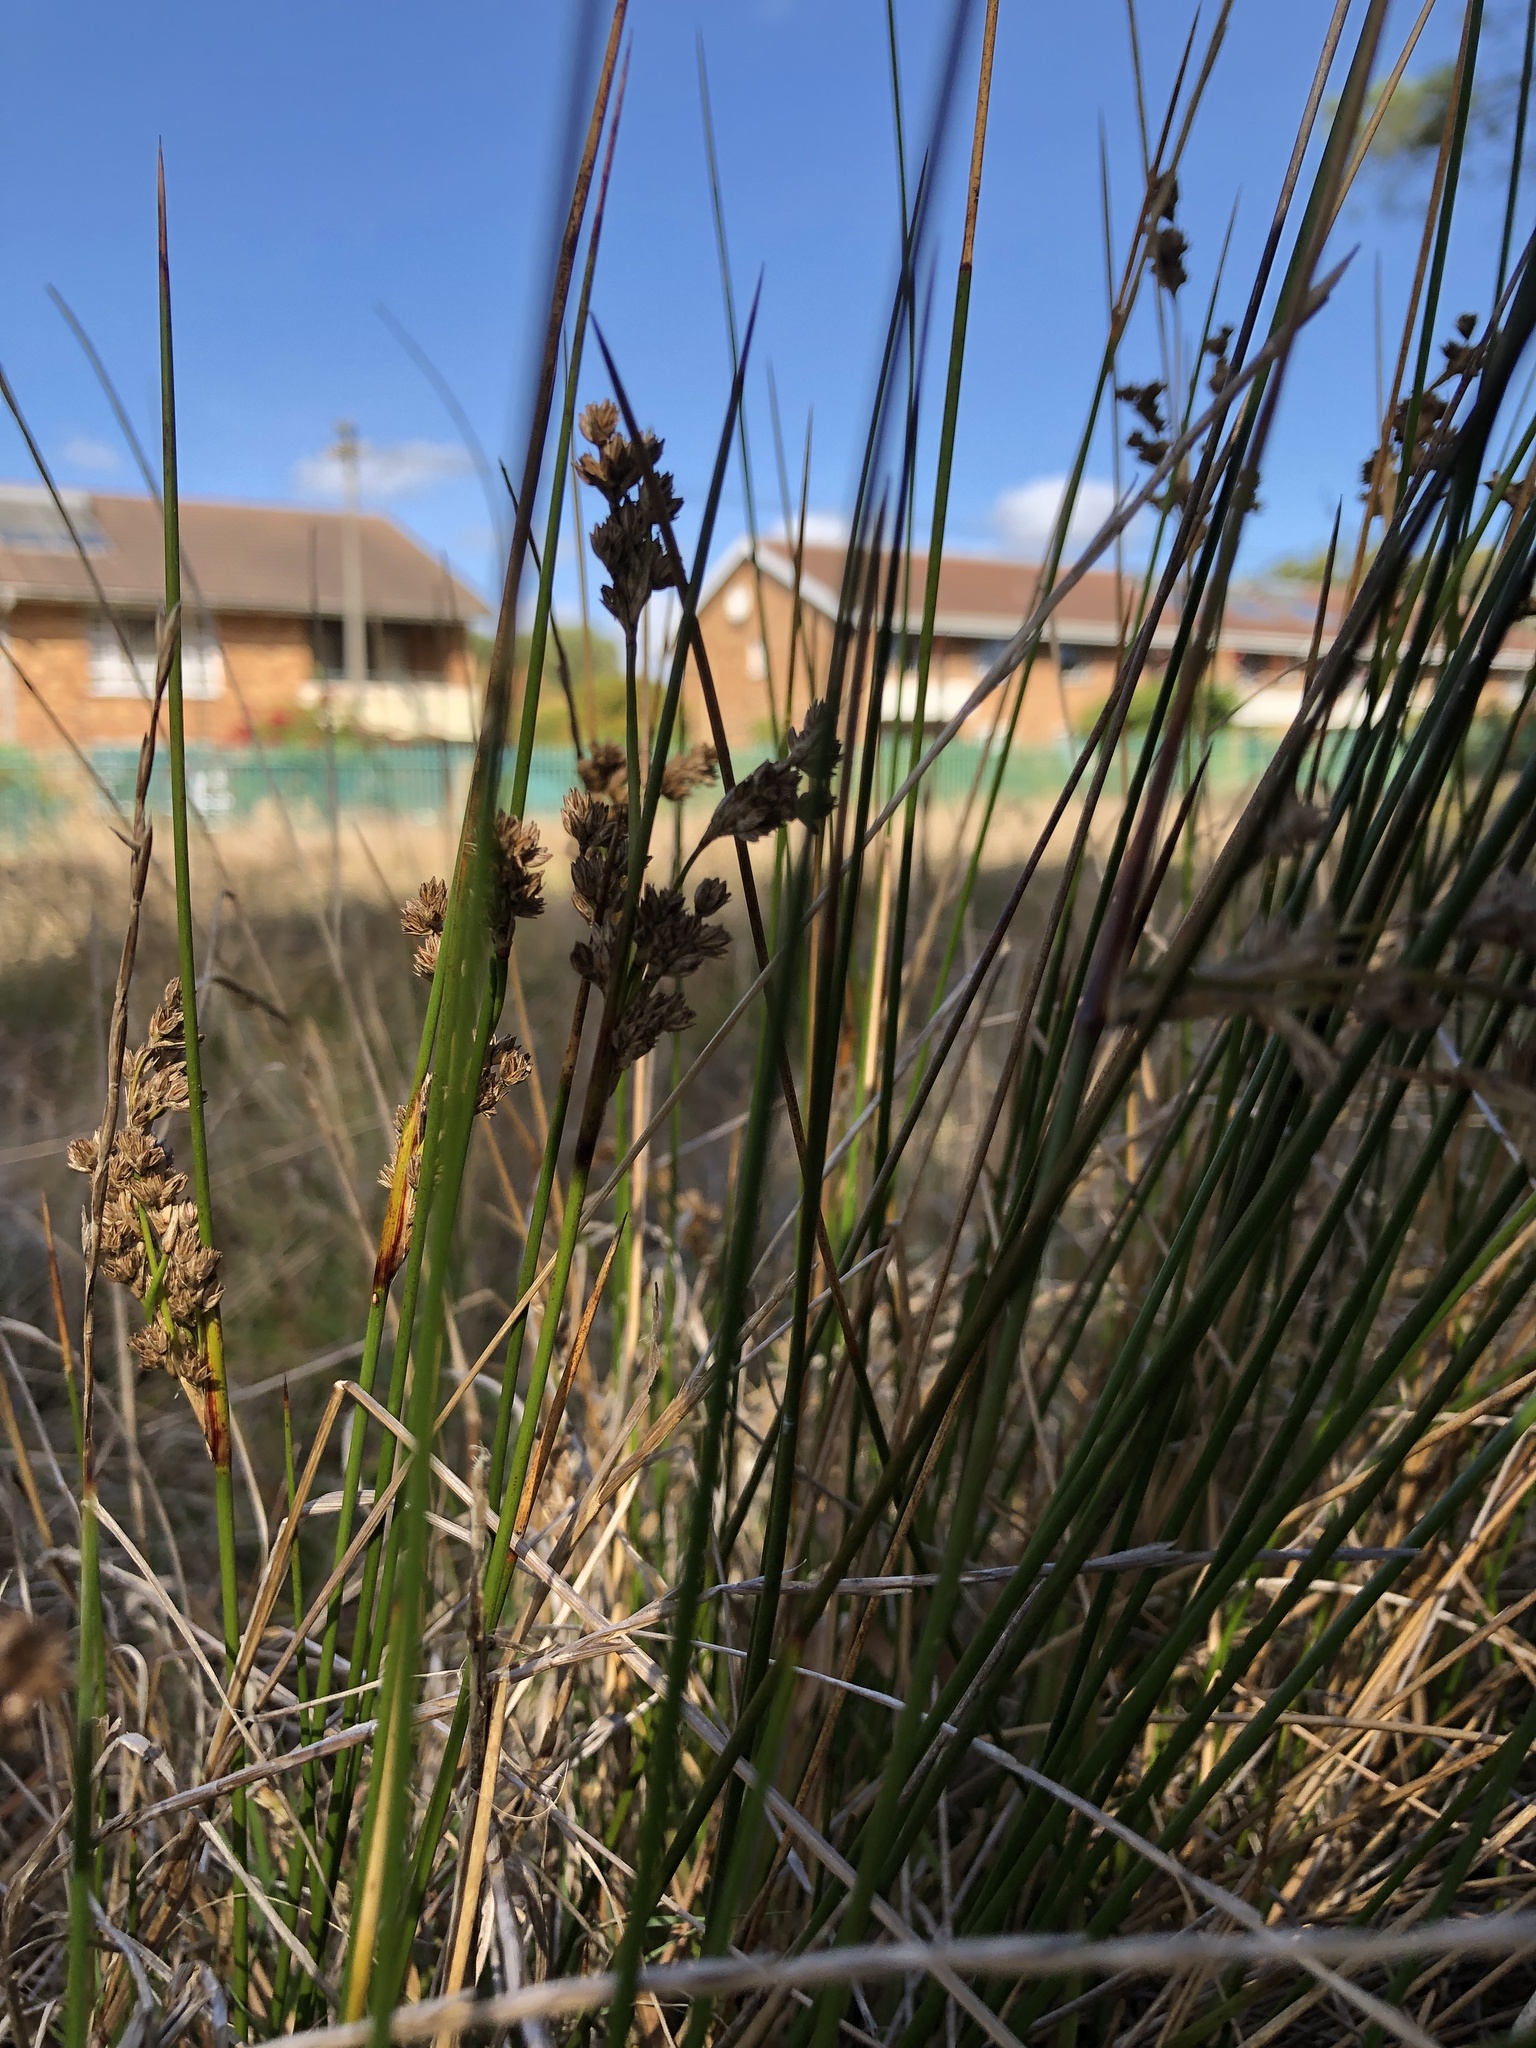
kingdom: Plantae
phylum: Tracheophyta
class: Liliopsida
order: Poales
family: Juncaceae
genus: Juncus
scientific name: Juncus kraussii
